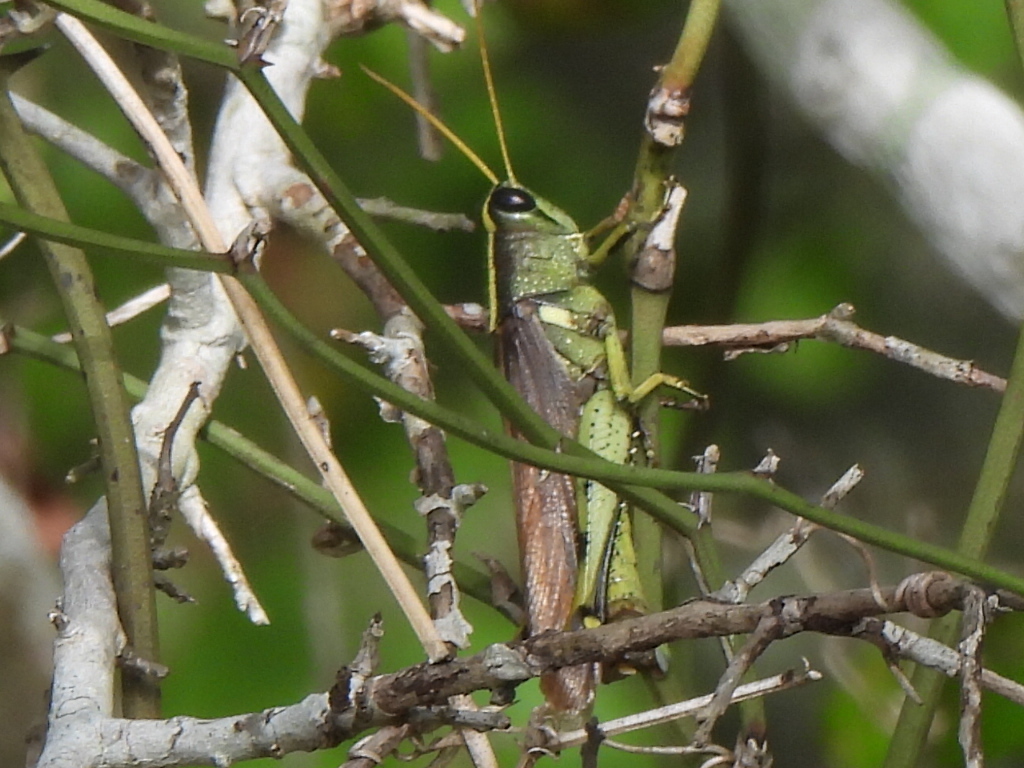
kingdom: Animalia
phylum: Arthropoda
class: Insecta
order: Orthoptera
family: Acrididae
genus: Schistocerca
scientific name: Schistocerca obscura
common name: Obscure bird grasshopper
